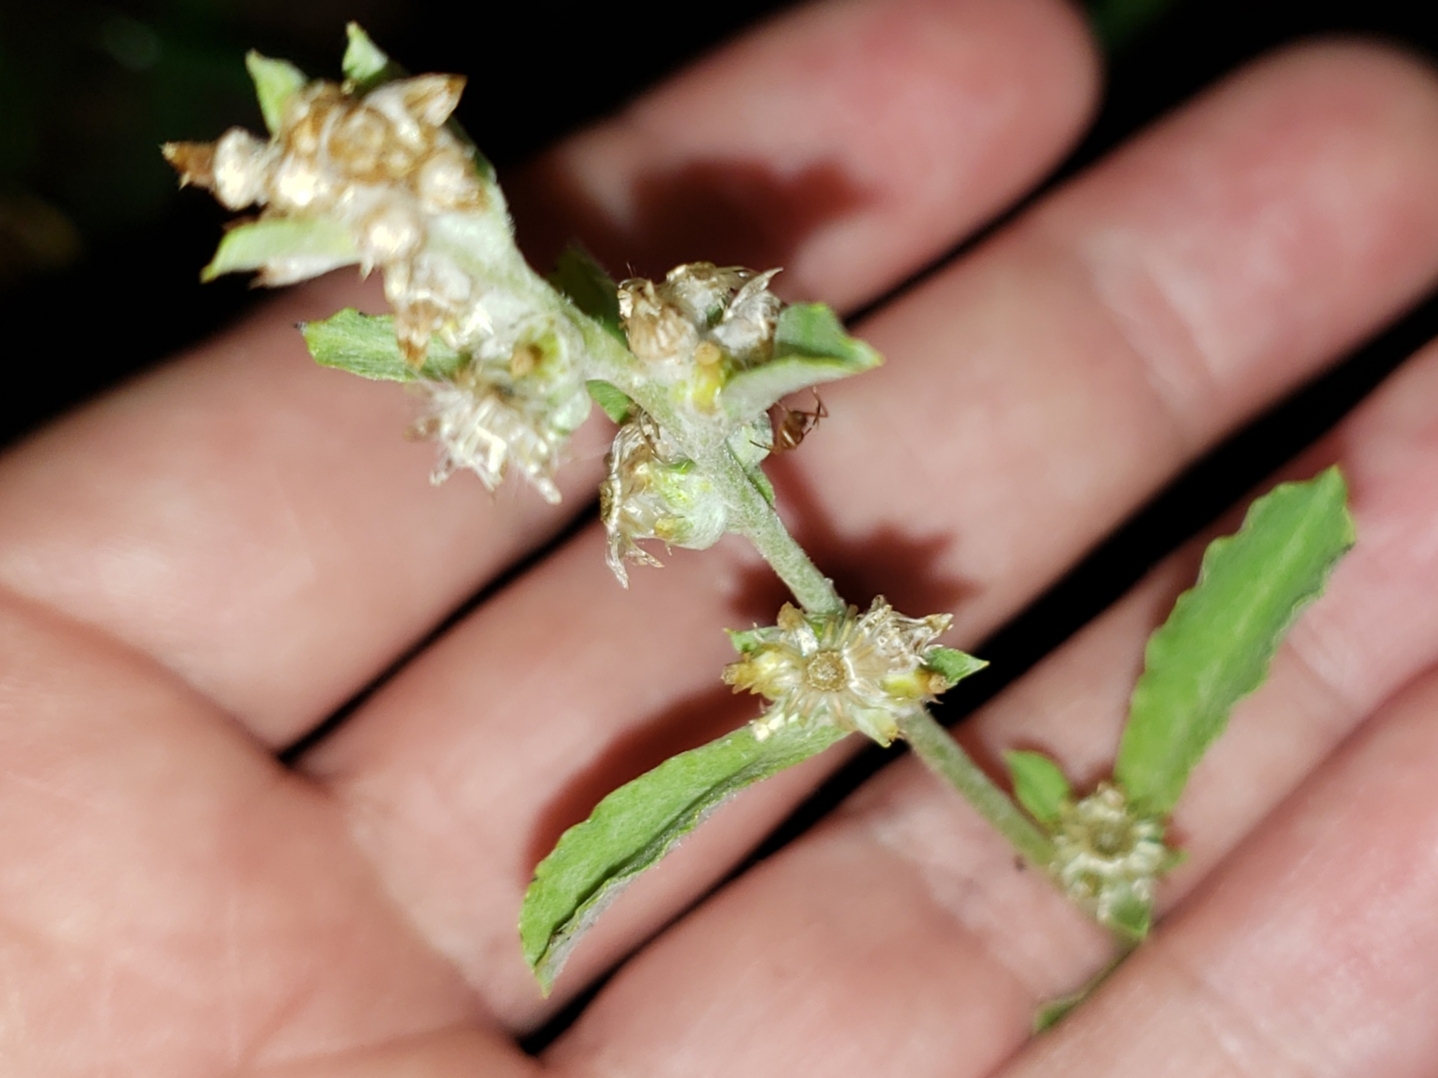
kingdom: Plantae
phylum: Tracheophyta
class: Magnoliopsida
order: Asterales
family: Asteraceae
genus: Gamochaeta
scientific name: Gamochaeta pensylvanica
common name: Pennsylvania everlasting
